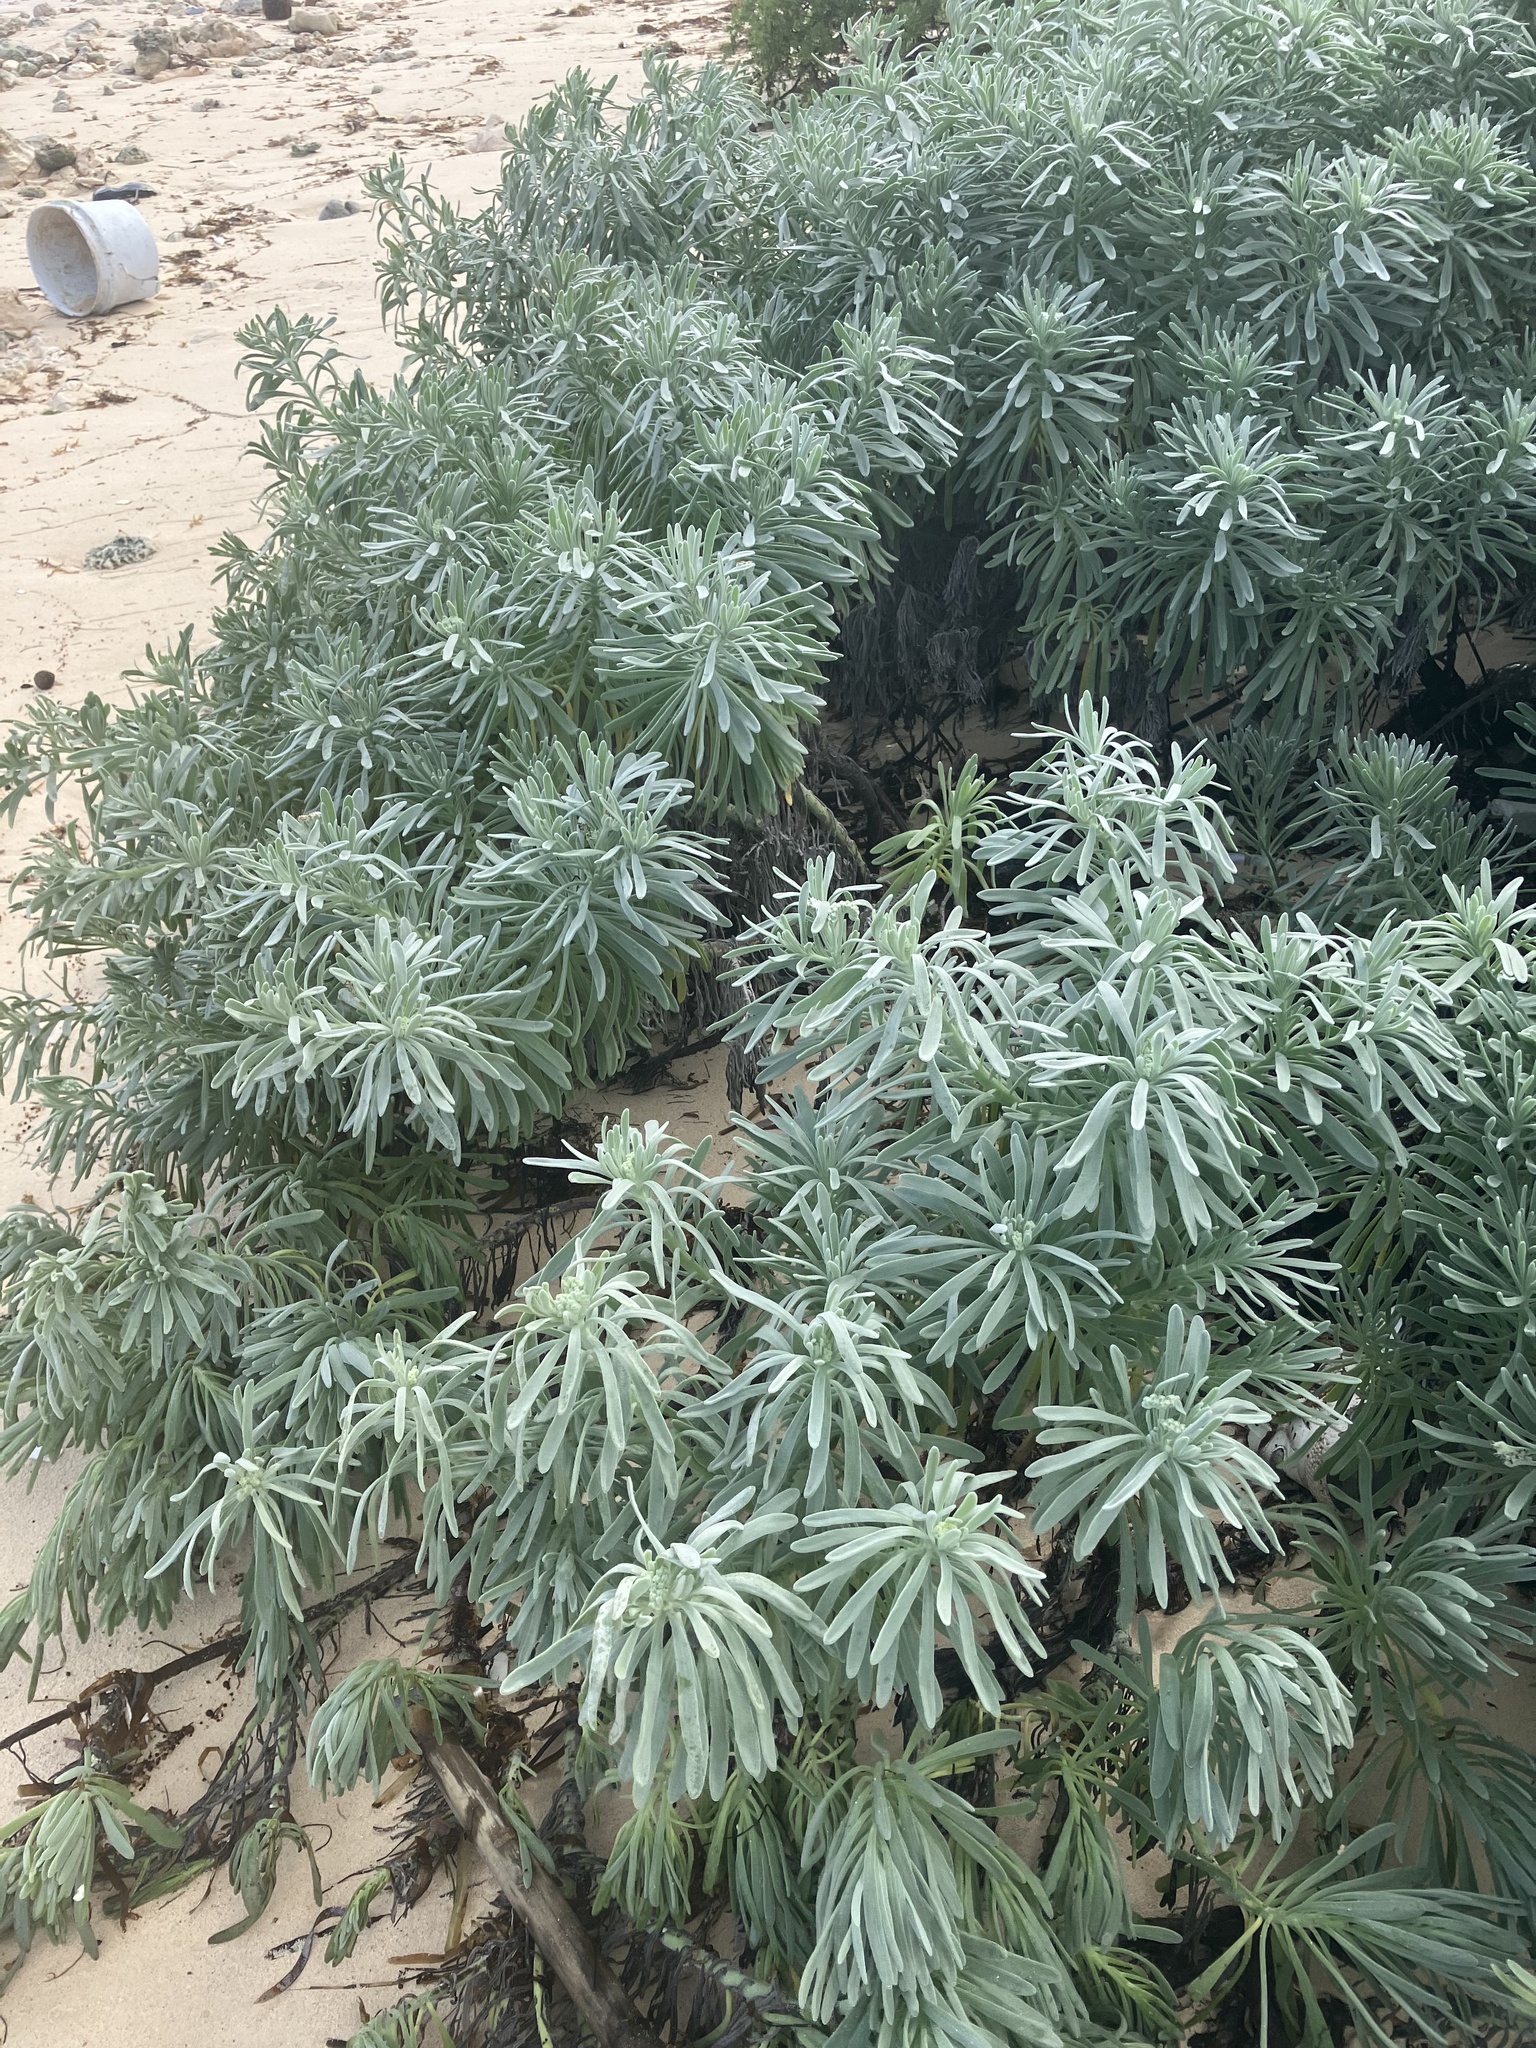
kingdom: Plantae
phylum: Tracheophyta
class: Magnoliopsida
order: Boraginales
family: Heliotropiaceae
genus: Tournefortia
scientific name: Tournefortia gnaphalodes
